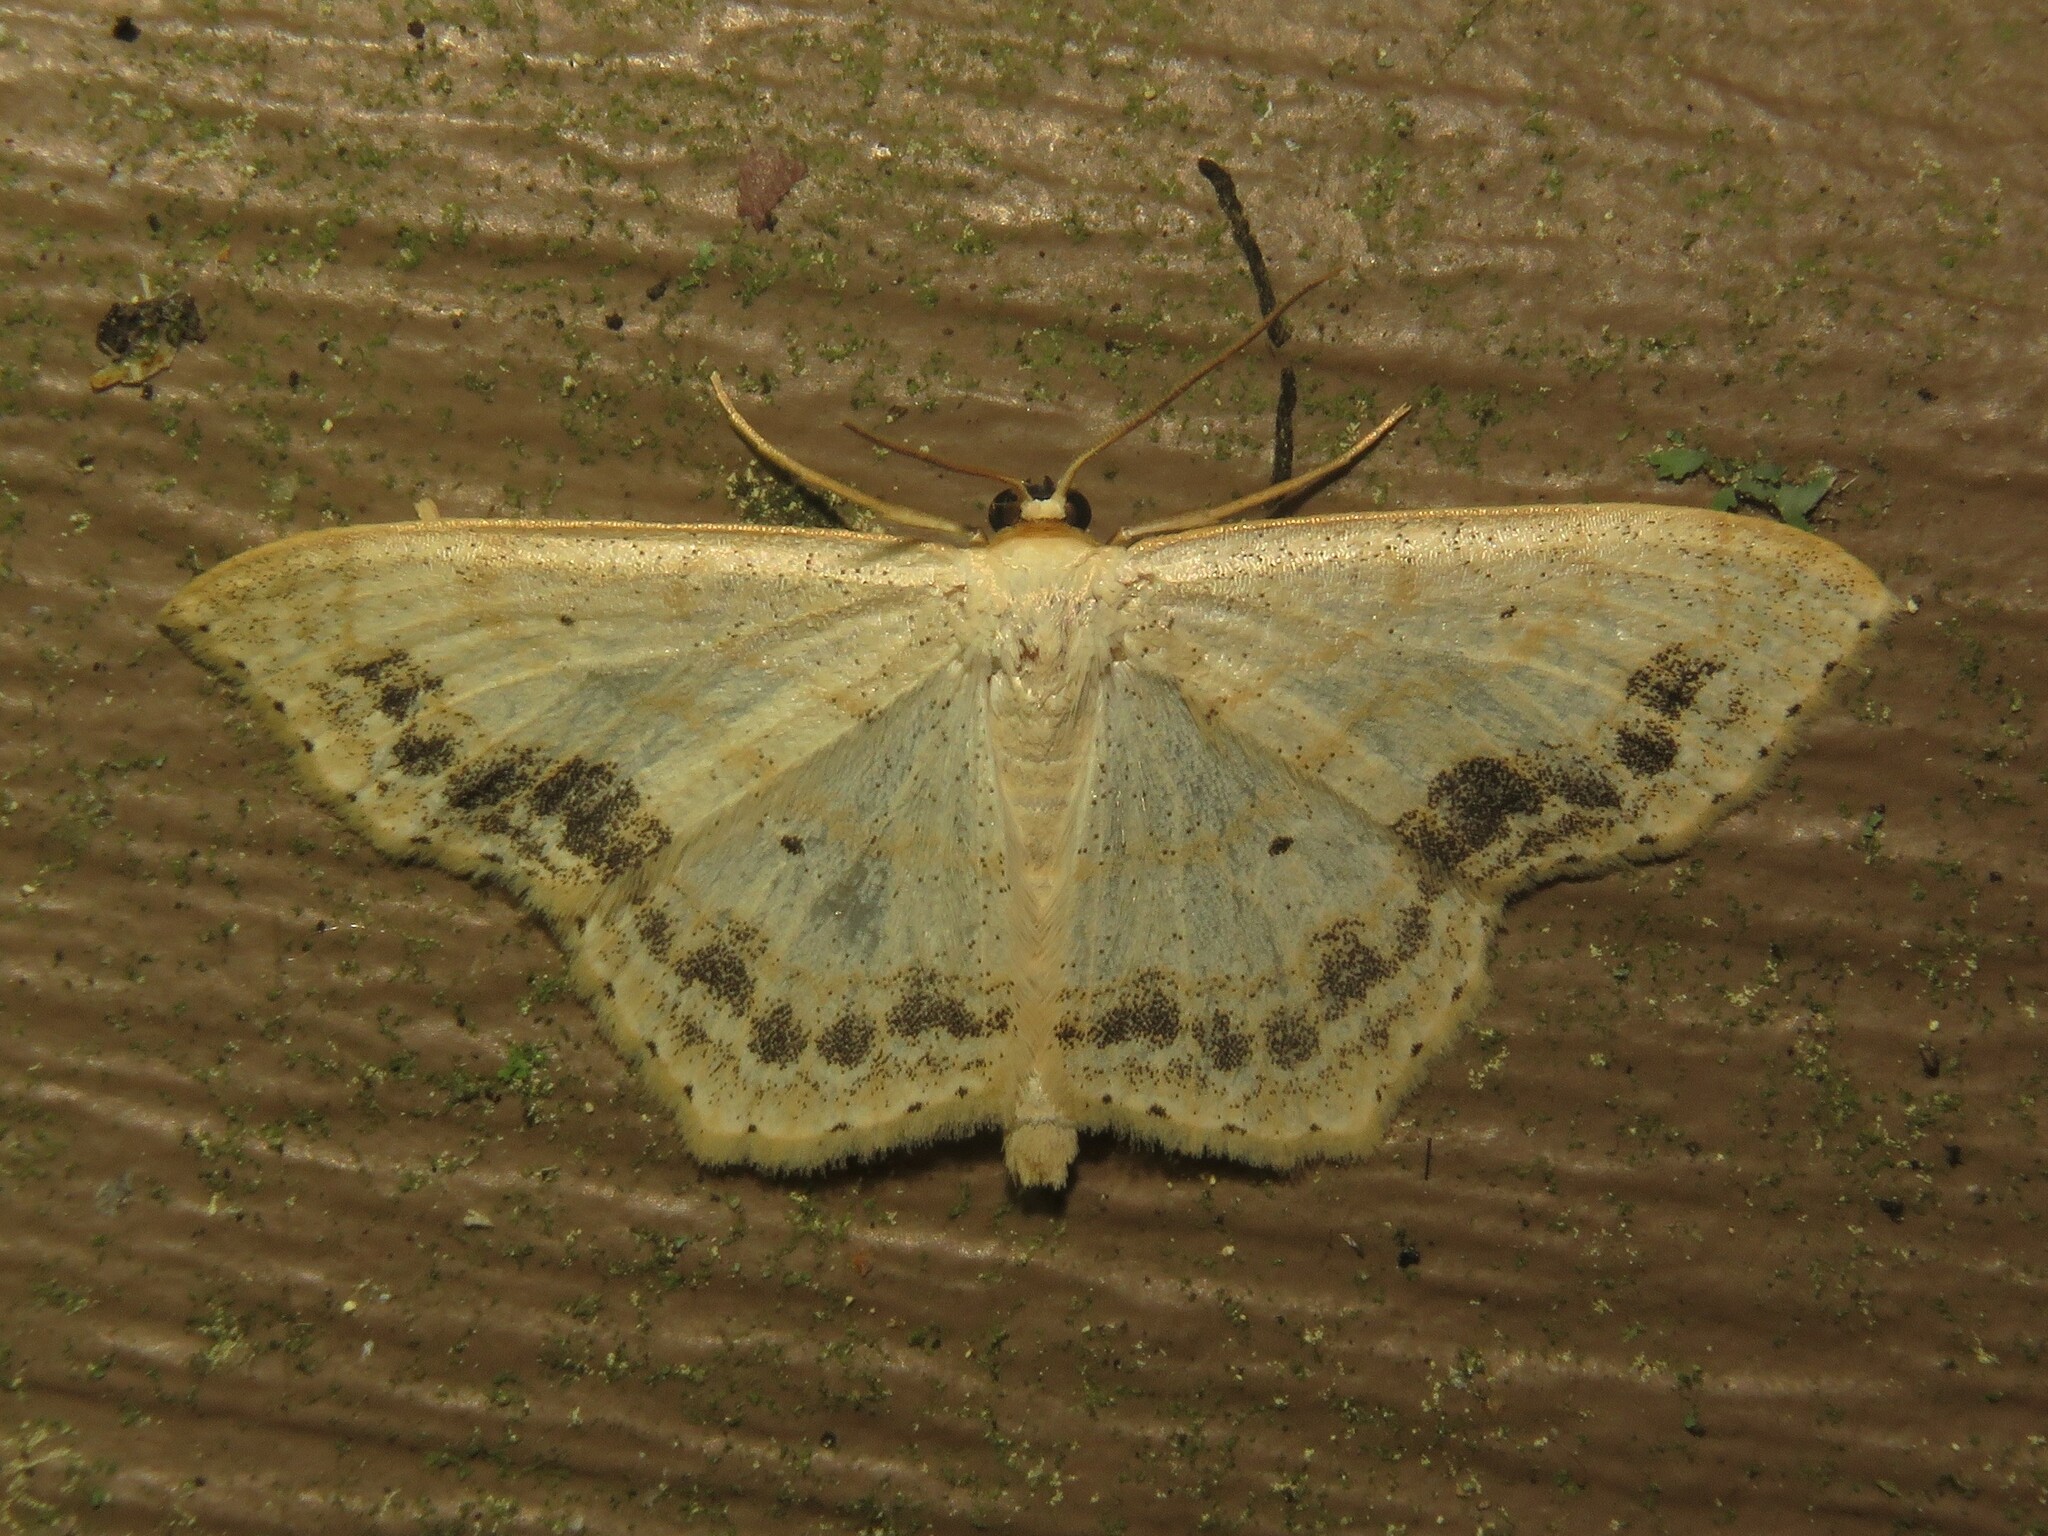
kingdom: Animalia
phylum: Arthropoda
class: Insecta
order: Lepidoptera
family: Geometridae
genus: Scopula
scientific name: Scopula limboundata
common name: Large lace border
